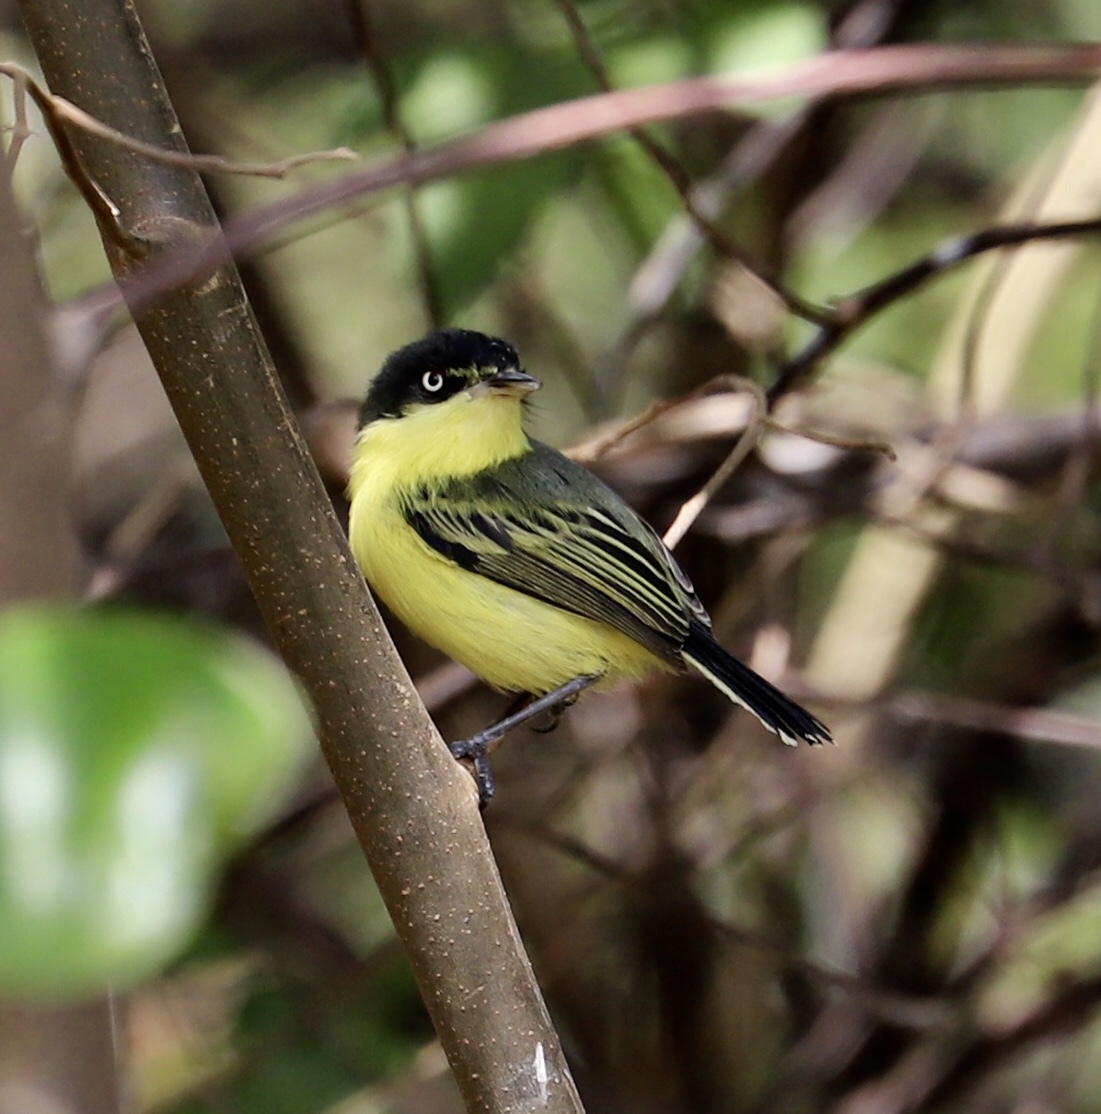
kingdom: Animalia
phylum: Chordata
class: Aves
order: Passeriformes
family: Tyrannidae
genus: Todirostrum
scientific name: Todirostrum cinereum
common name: Common tody-flycatcher
